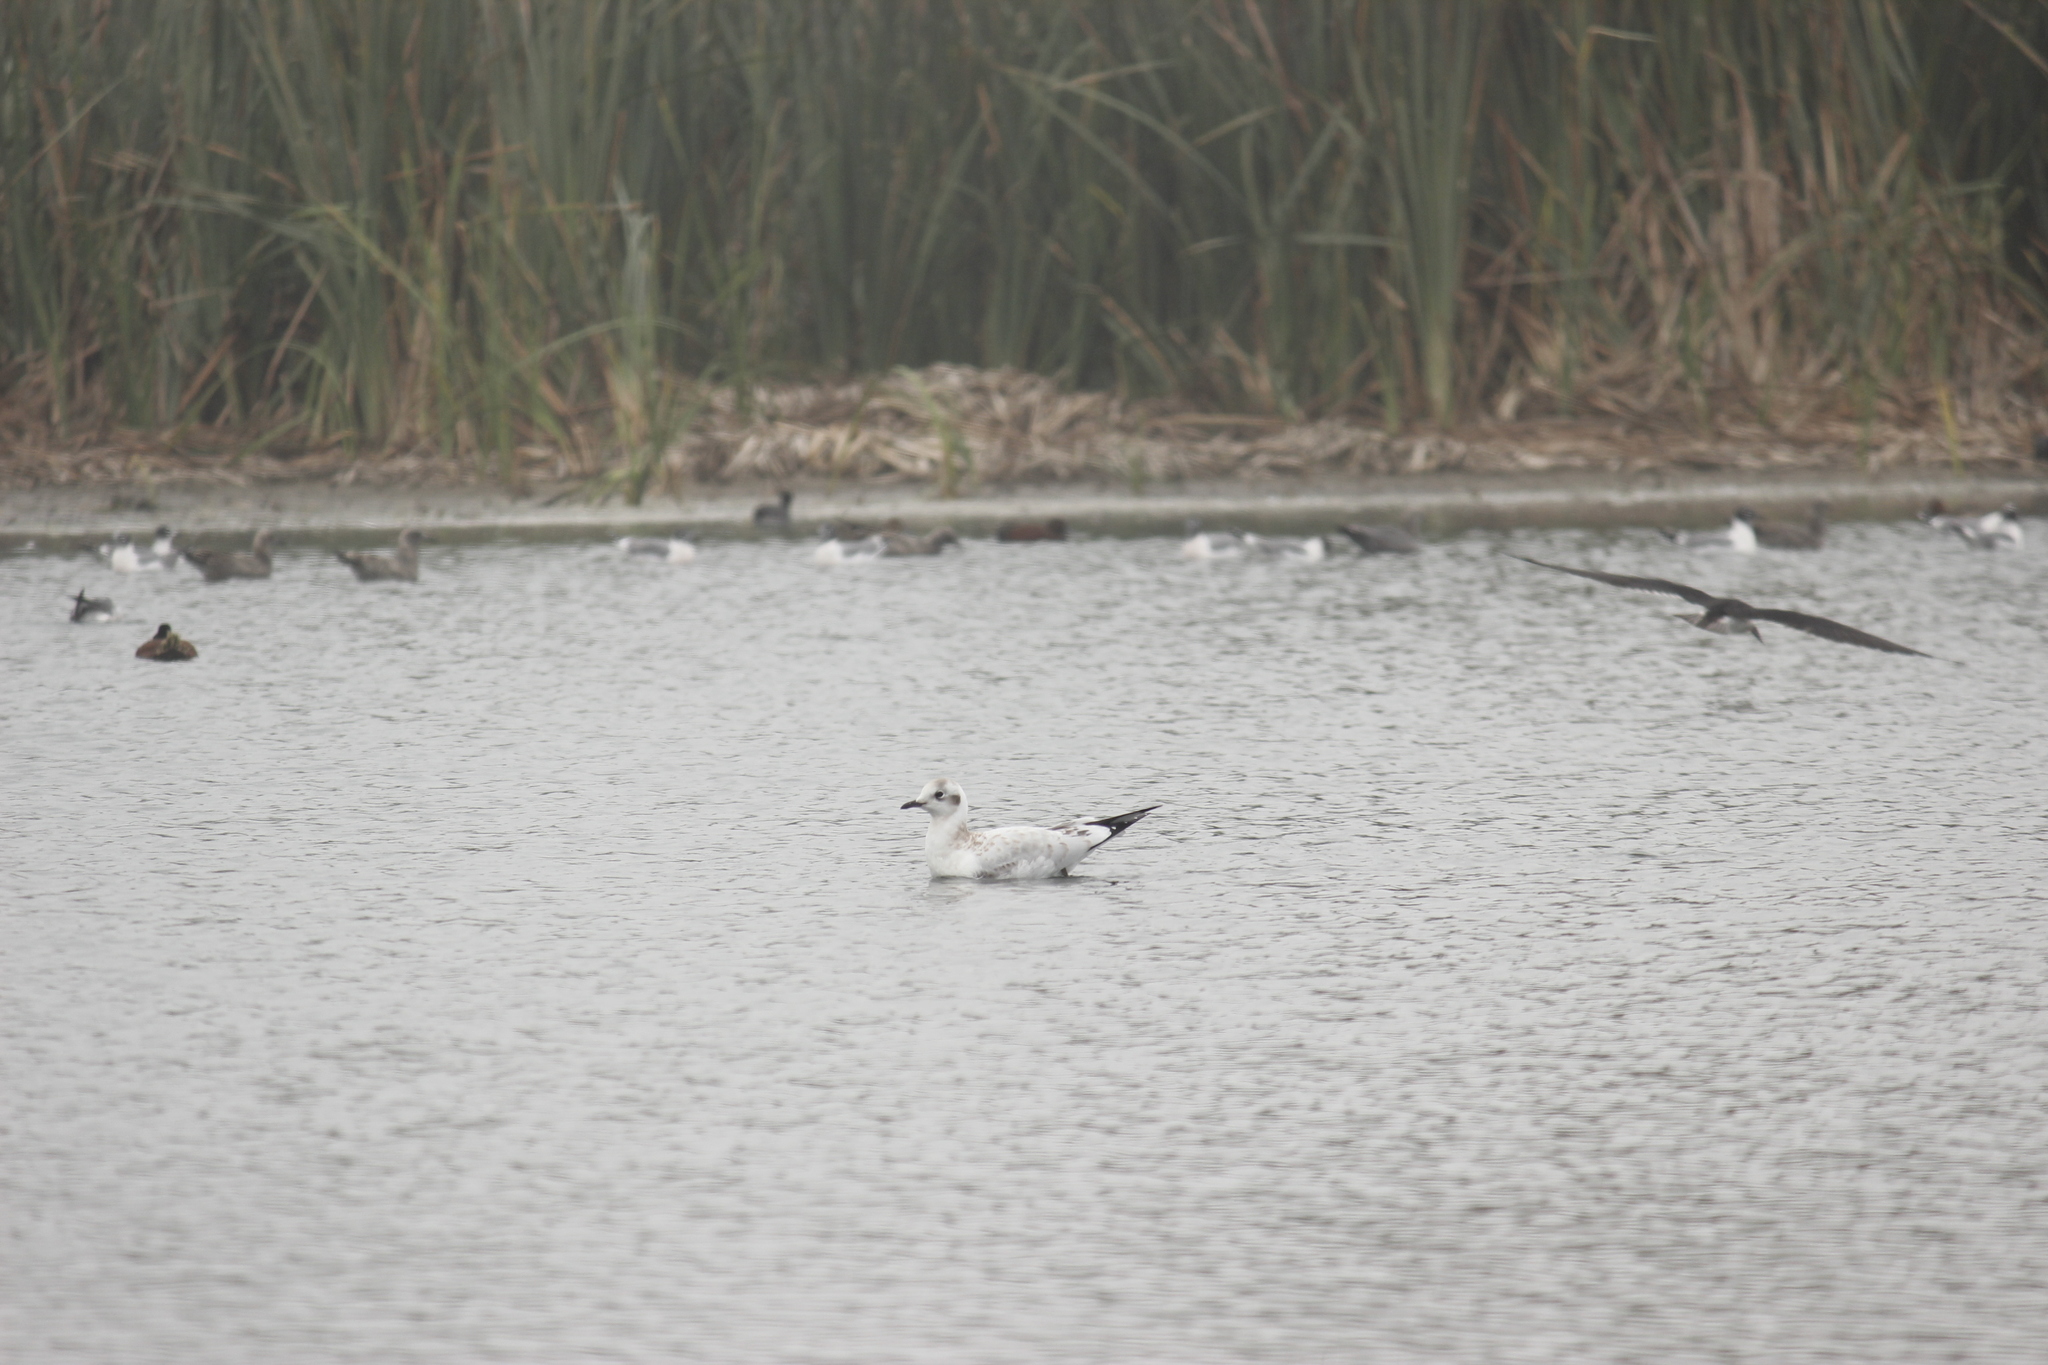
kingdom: Animalia
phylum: Chordata
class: Aves
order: Charadriiformes
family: Laridae
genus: Chroicocephalus
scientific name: Chroicocephalus cirrocephalus
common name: Grey-headed gull
